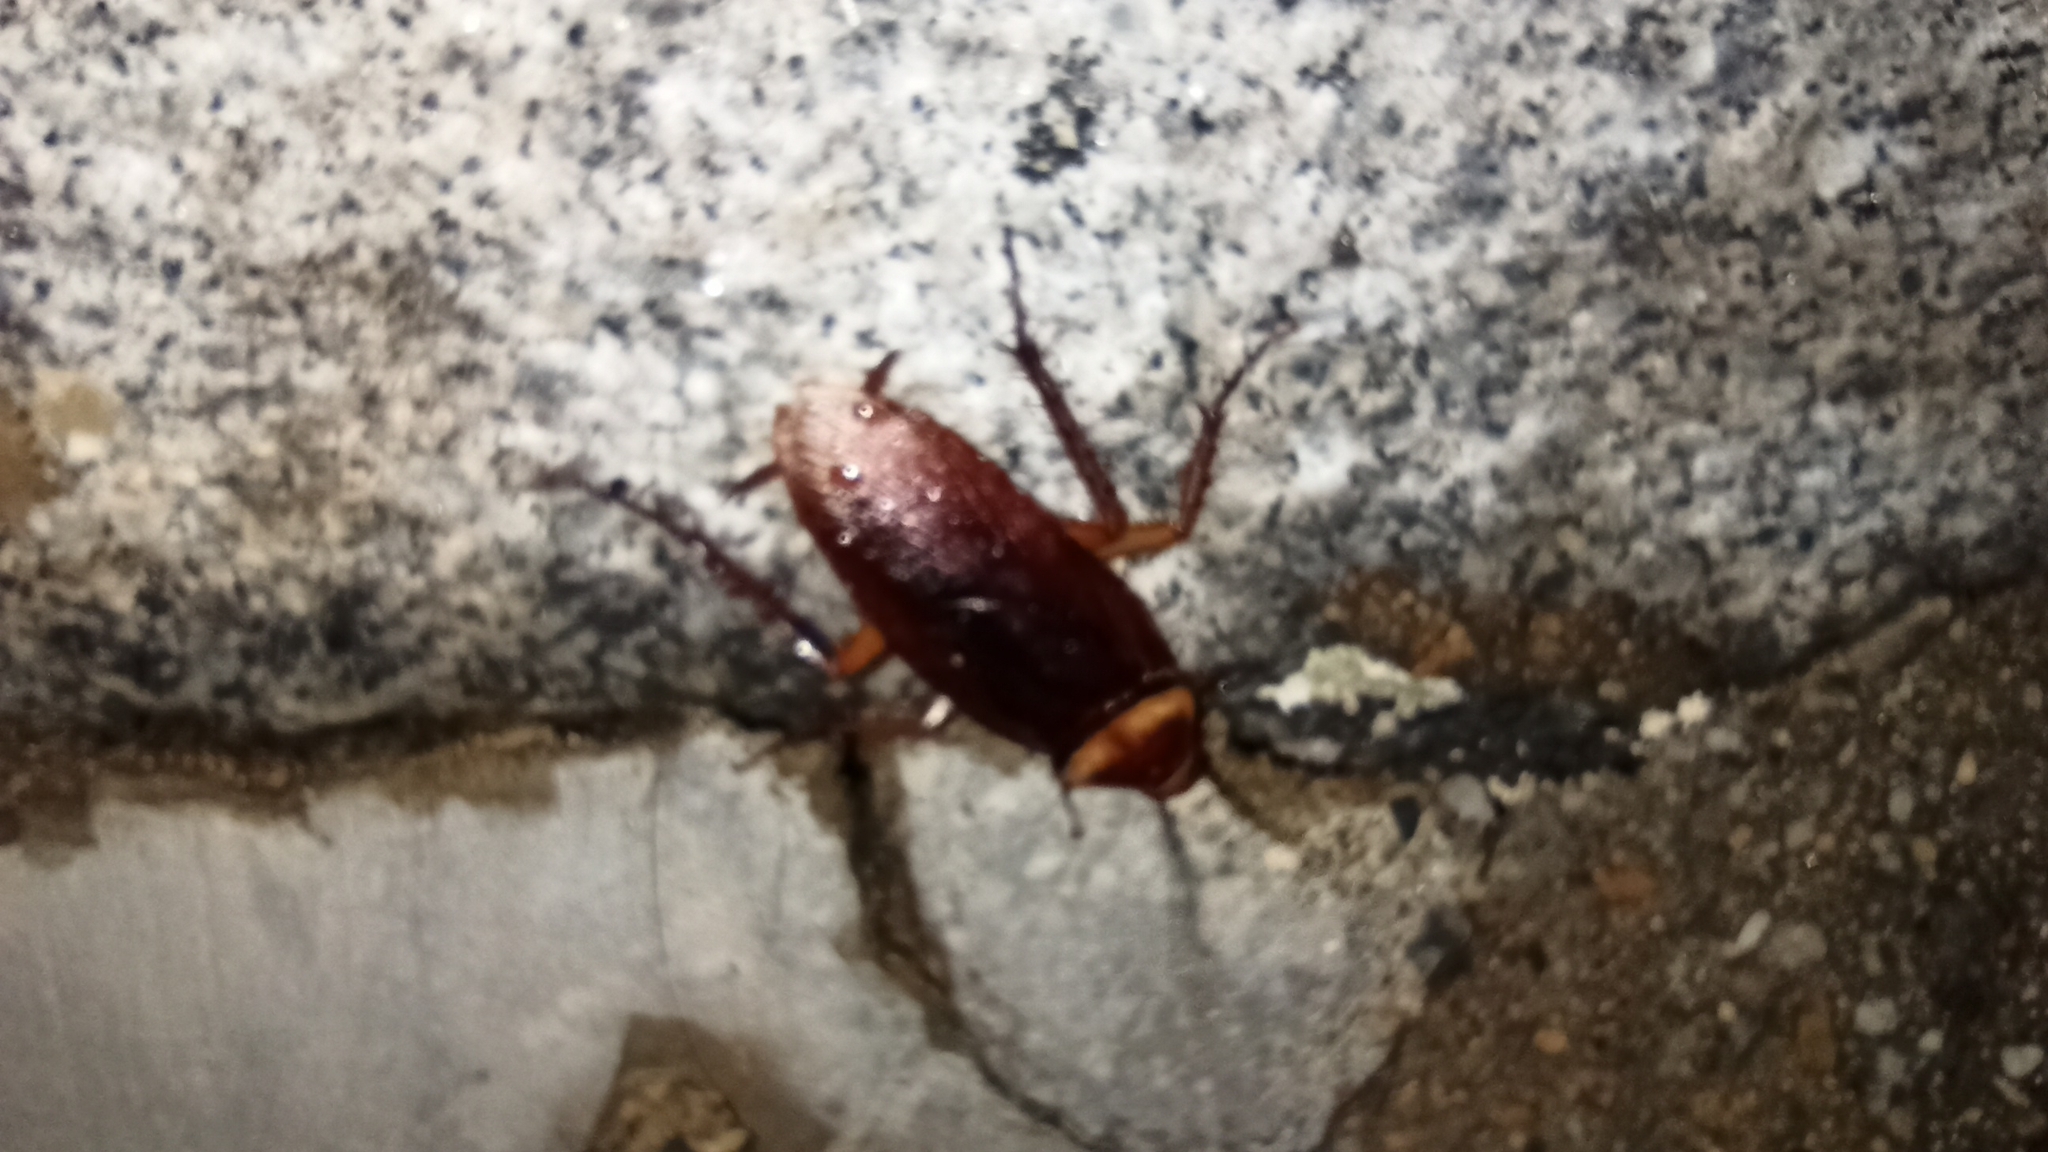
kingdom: Animalia
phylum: Arthropoda
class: Insecta
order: Blattodea
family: Blattidae
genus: Periplaneta
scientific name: Periplaneta americana
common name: American cockroach
